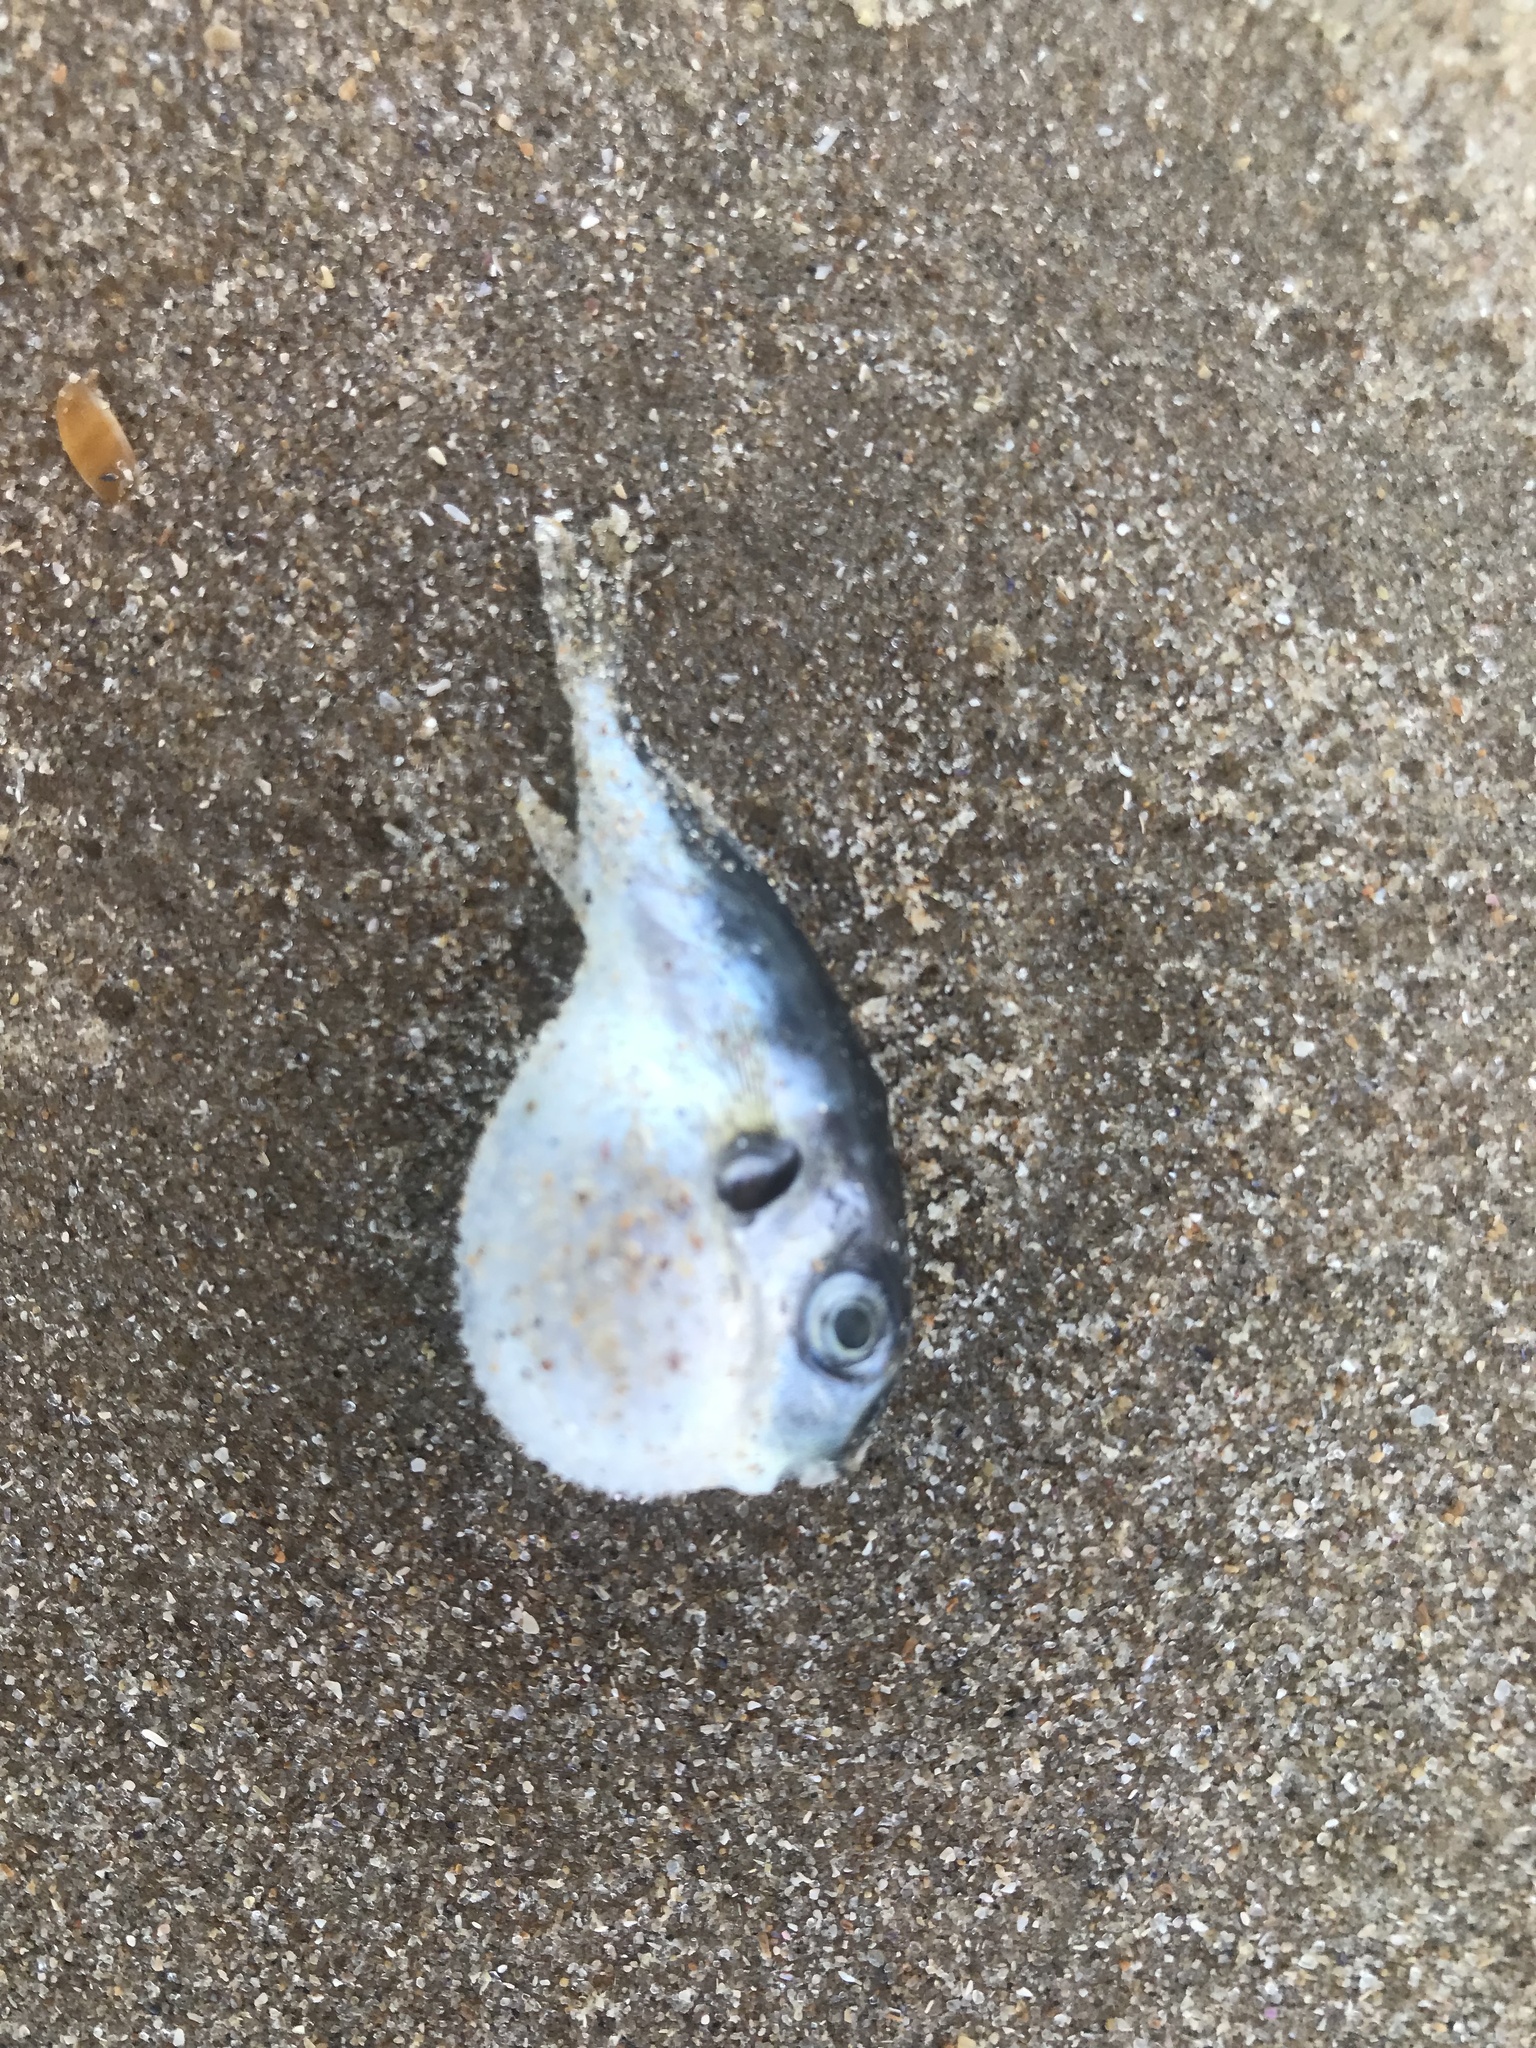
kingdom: Animalia
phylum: Chordata
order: Tetraodontiformes
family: Tetraodontidae
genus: Lagocephalus
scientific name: Lagocephalus
